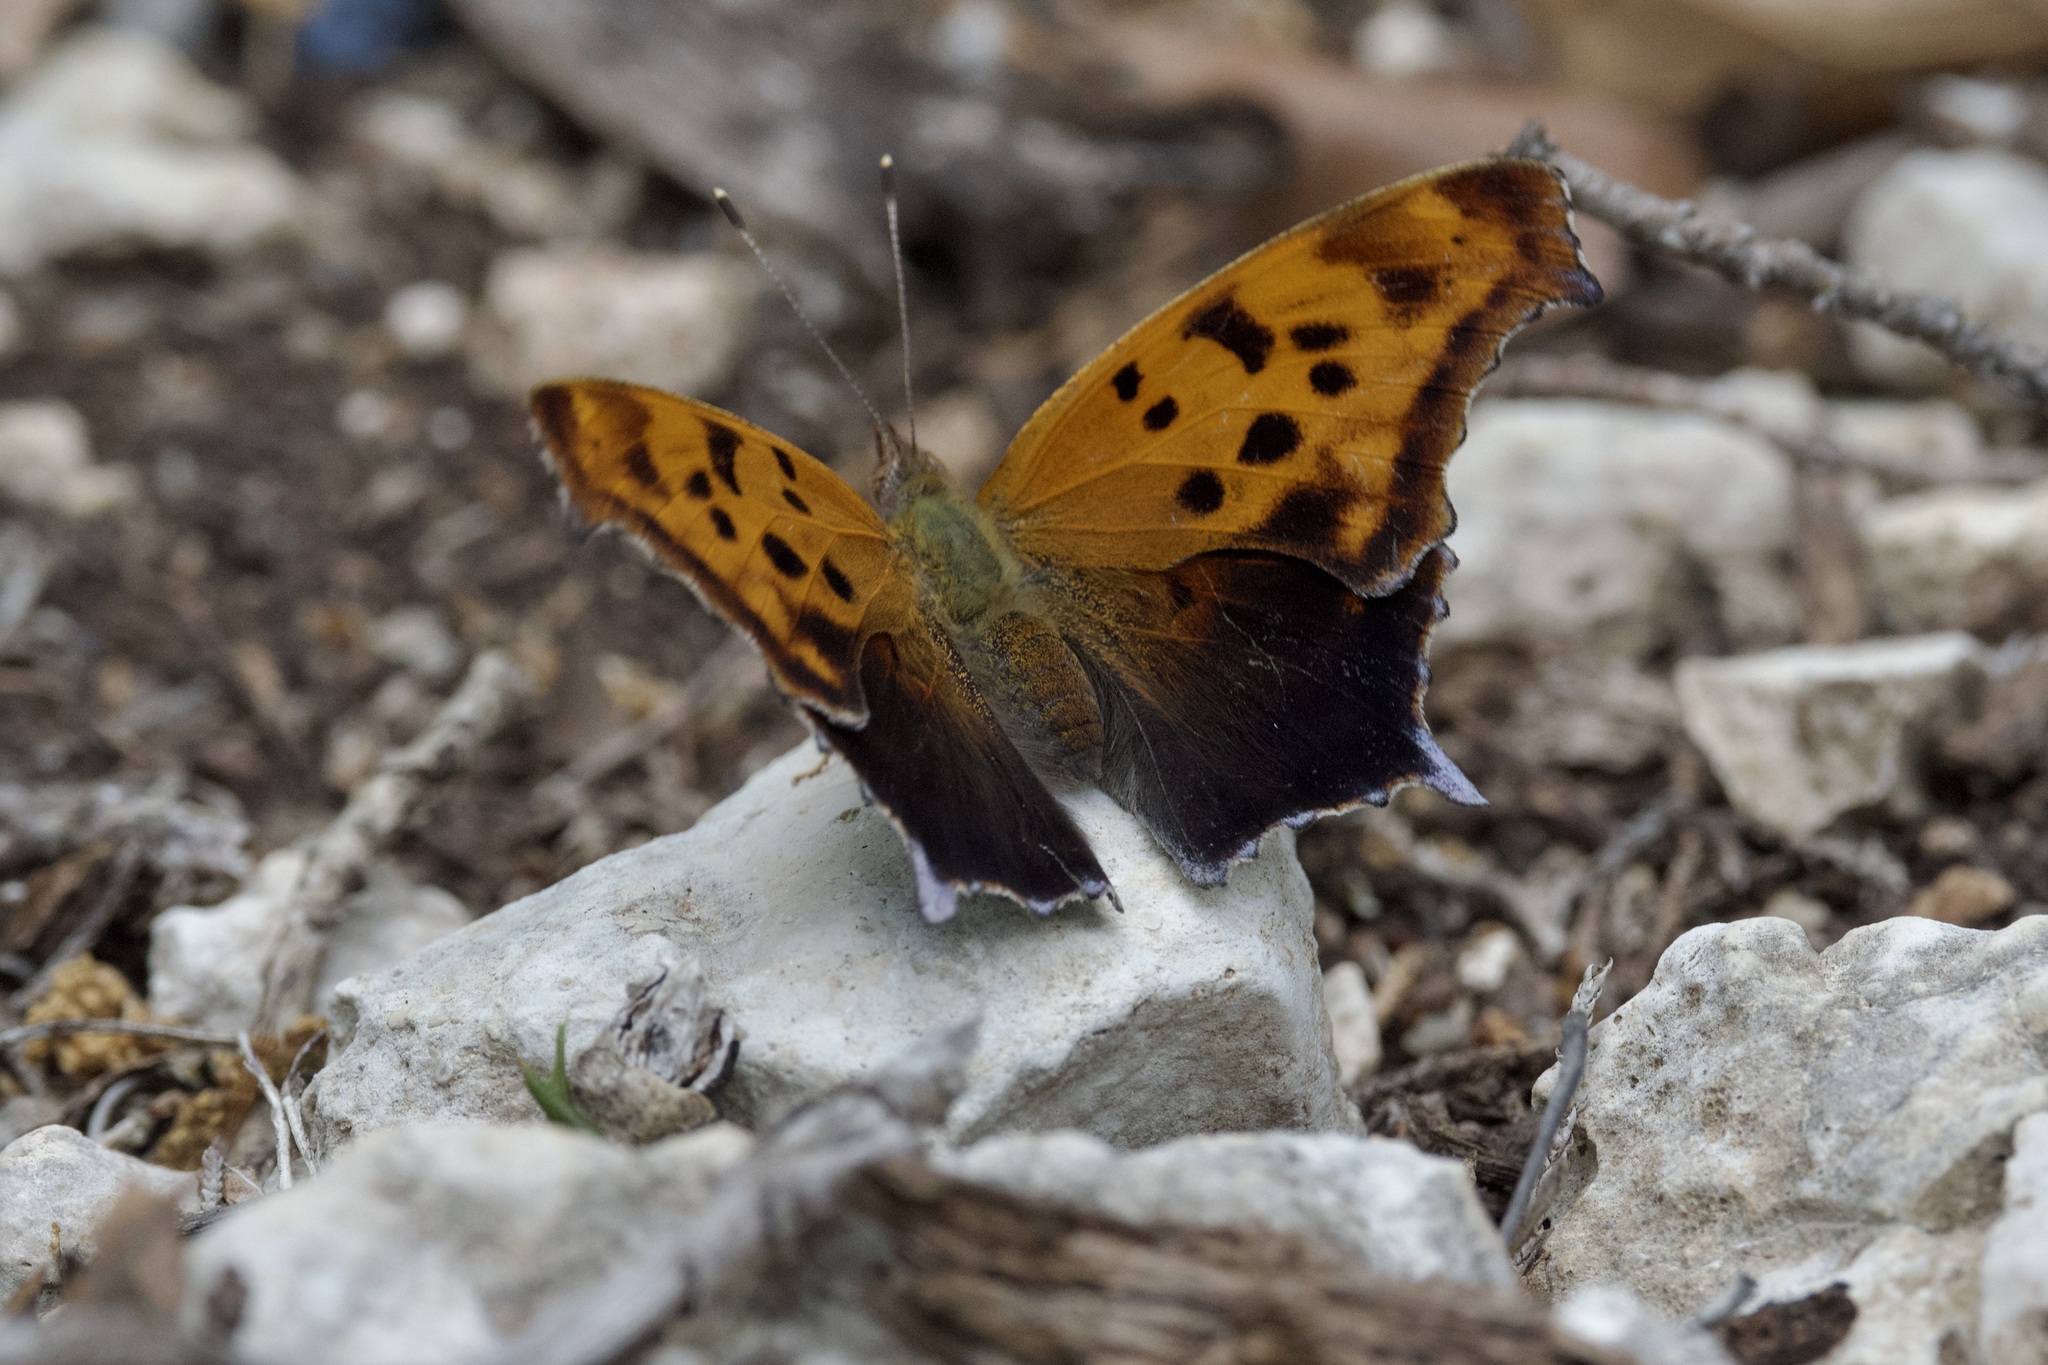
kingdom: Animalia
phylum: Arthropoda
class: Insecta
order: Lepidoptera
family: Nymphalidae
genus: Polygonia
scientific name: Polygonia interrogationis
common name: Question mark
